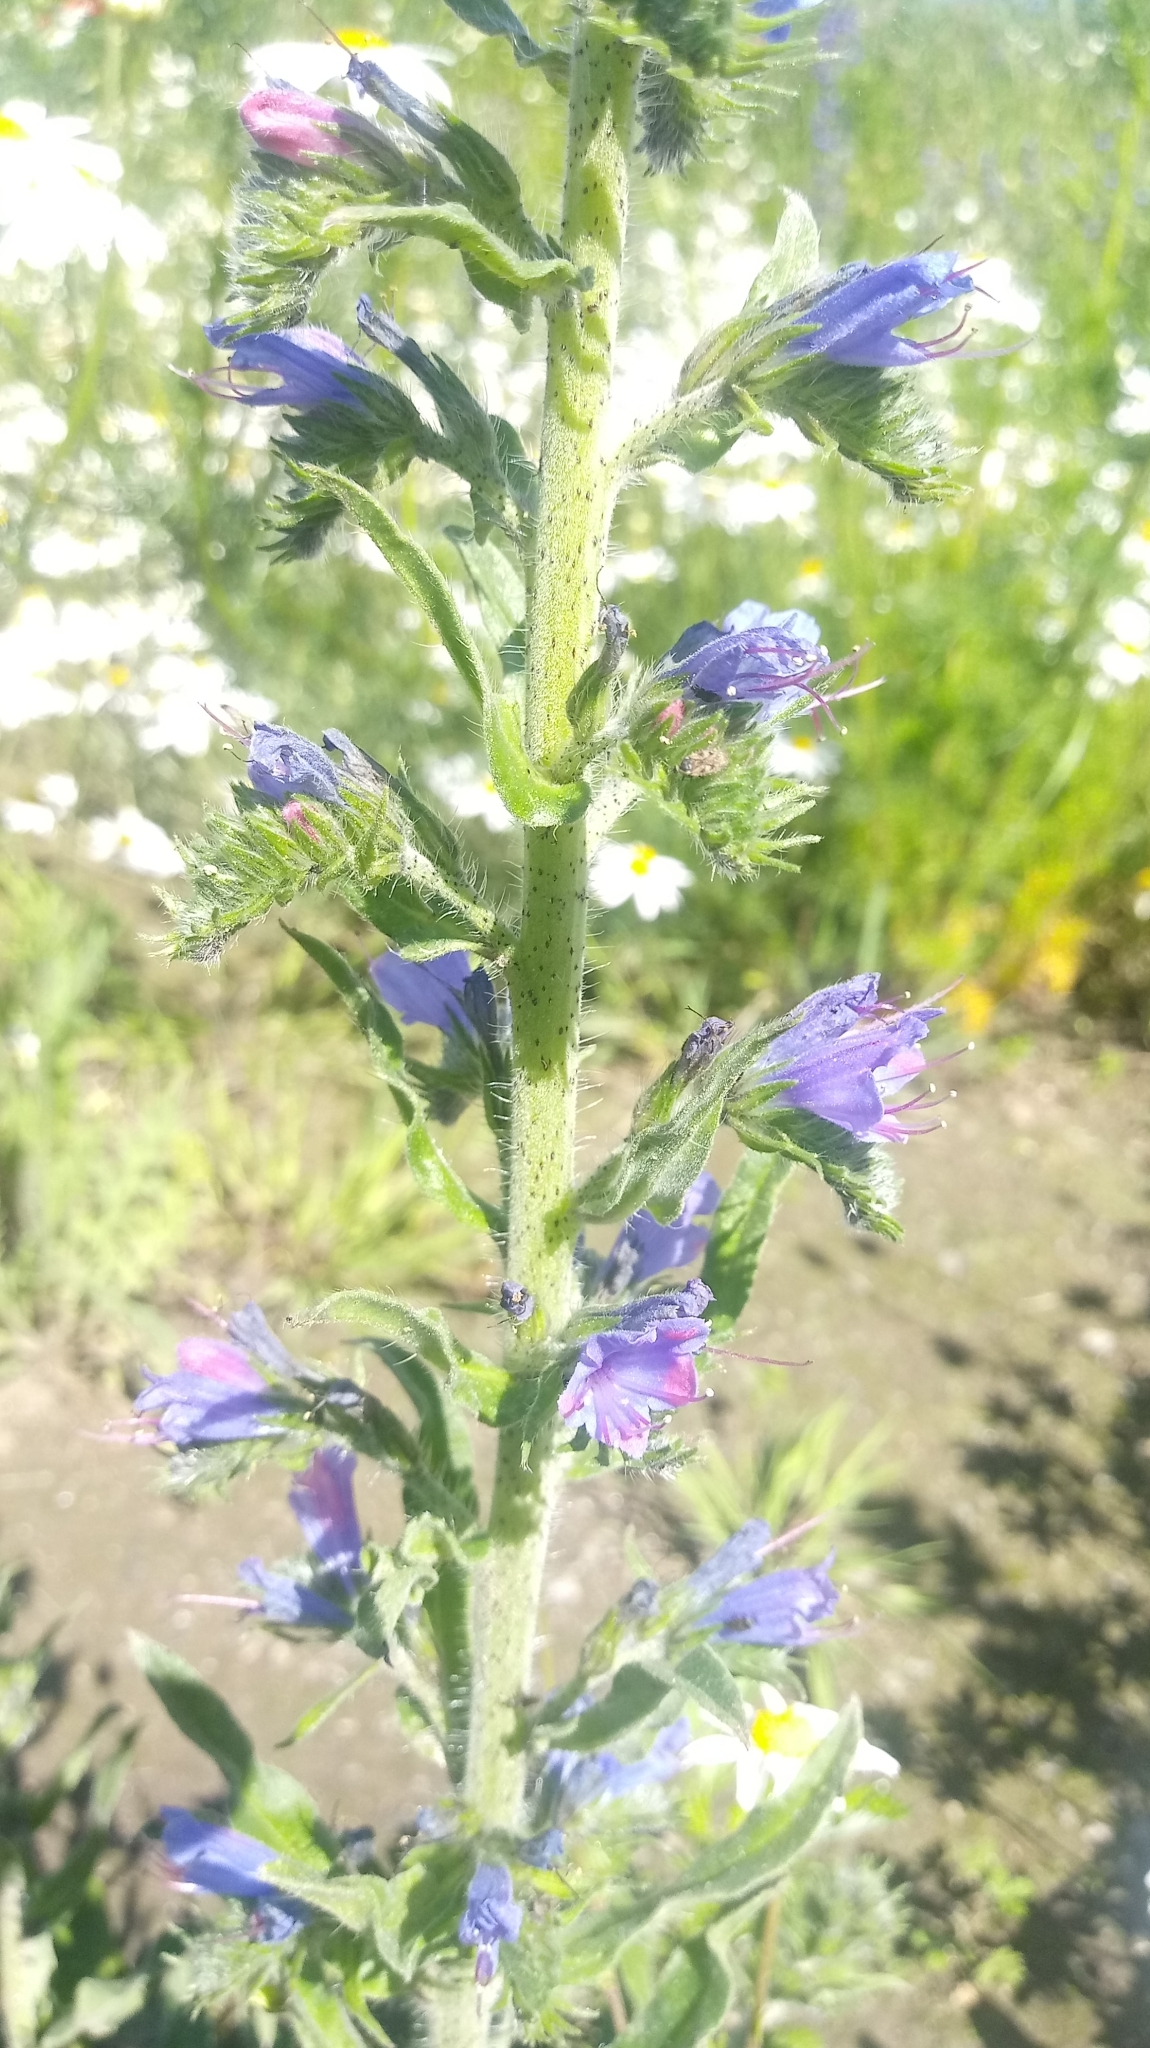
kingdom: Plantae
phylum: Tracheophyta
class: Magnoliopsida
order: Boraginales
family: Boraginaceae
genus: Echium
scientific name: Echium vulgare
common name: Common viper's bugloss
